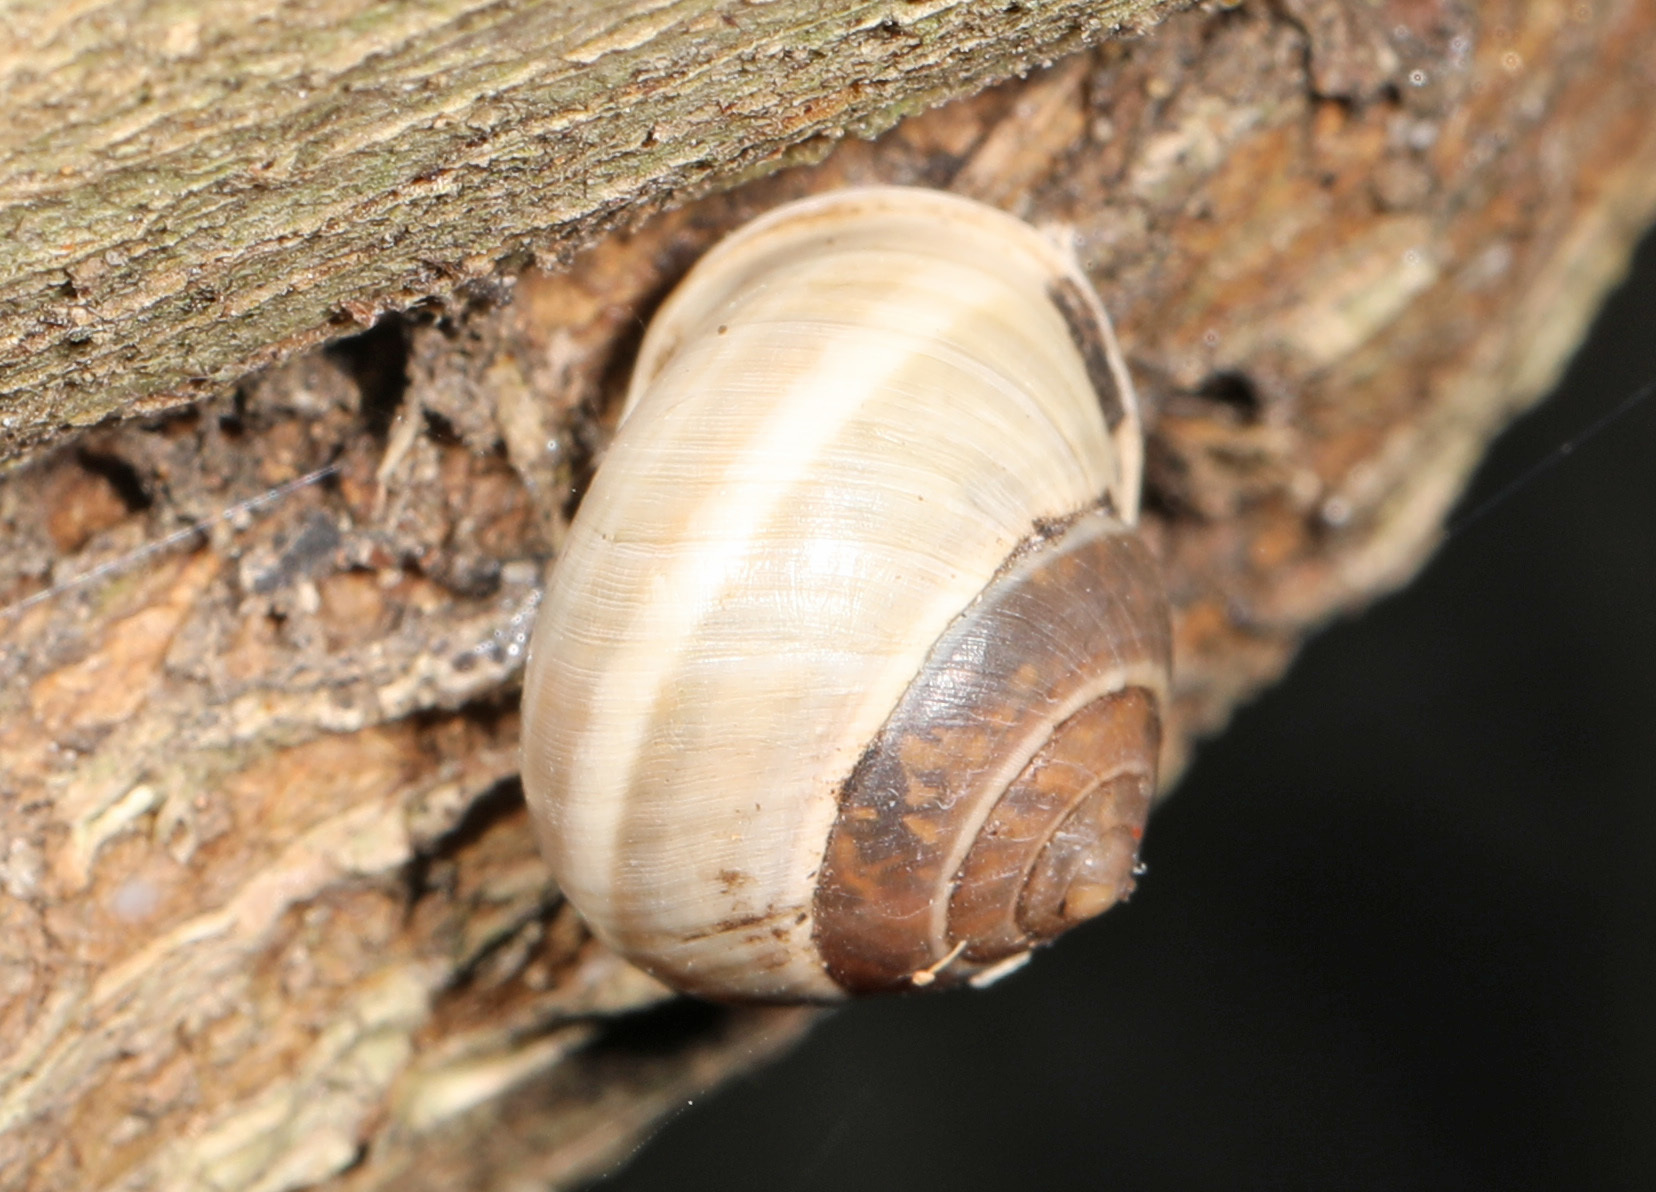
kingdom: Animalia
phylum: Mollusca
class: Gastropoda
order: Cycloneritida
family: Helicinidae
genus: Helicina
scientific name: Helicina orbiculata
